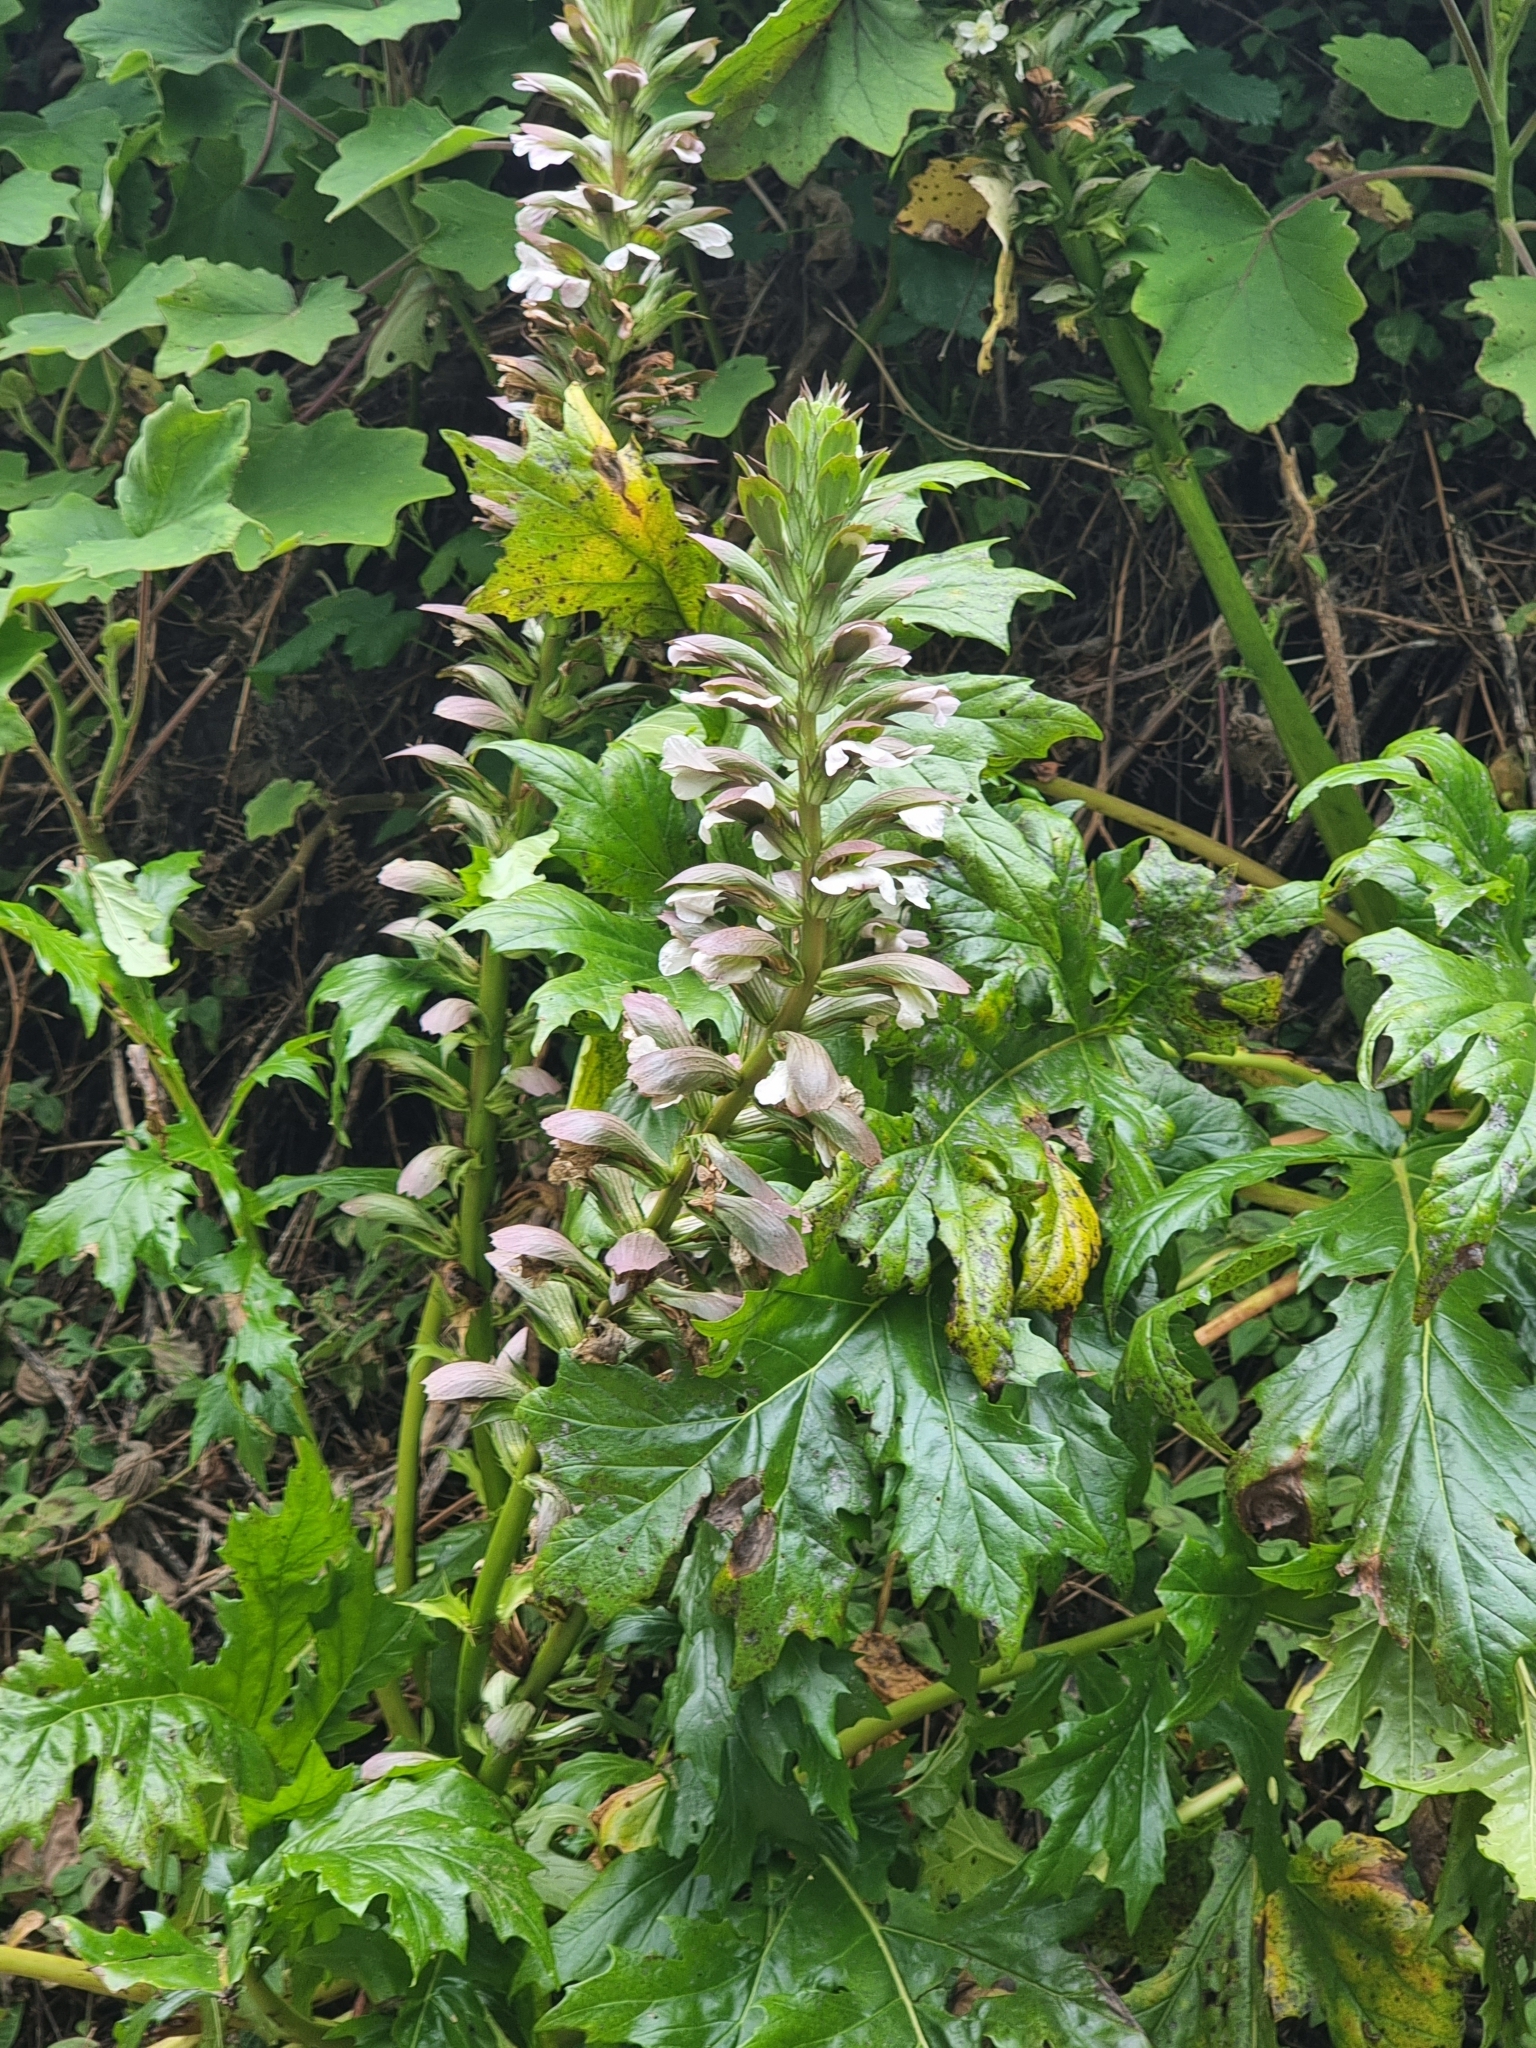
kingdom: Plantae
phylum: Tracheophyta
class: Magnoliopsida
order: Lamiales
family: Acanthaceae
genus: Acanthus
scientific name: Acanthus mollis
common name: Bear's-breech
